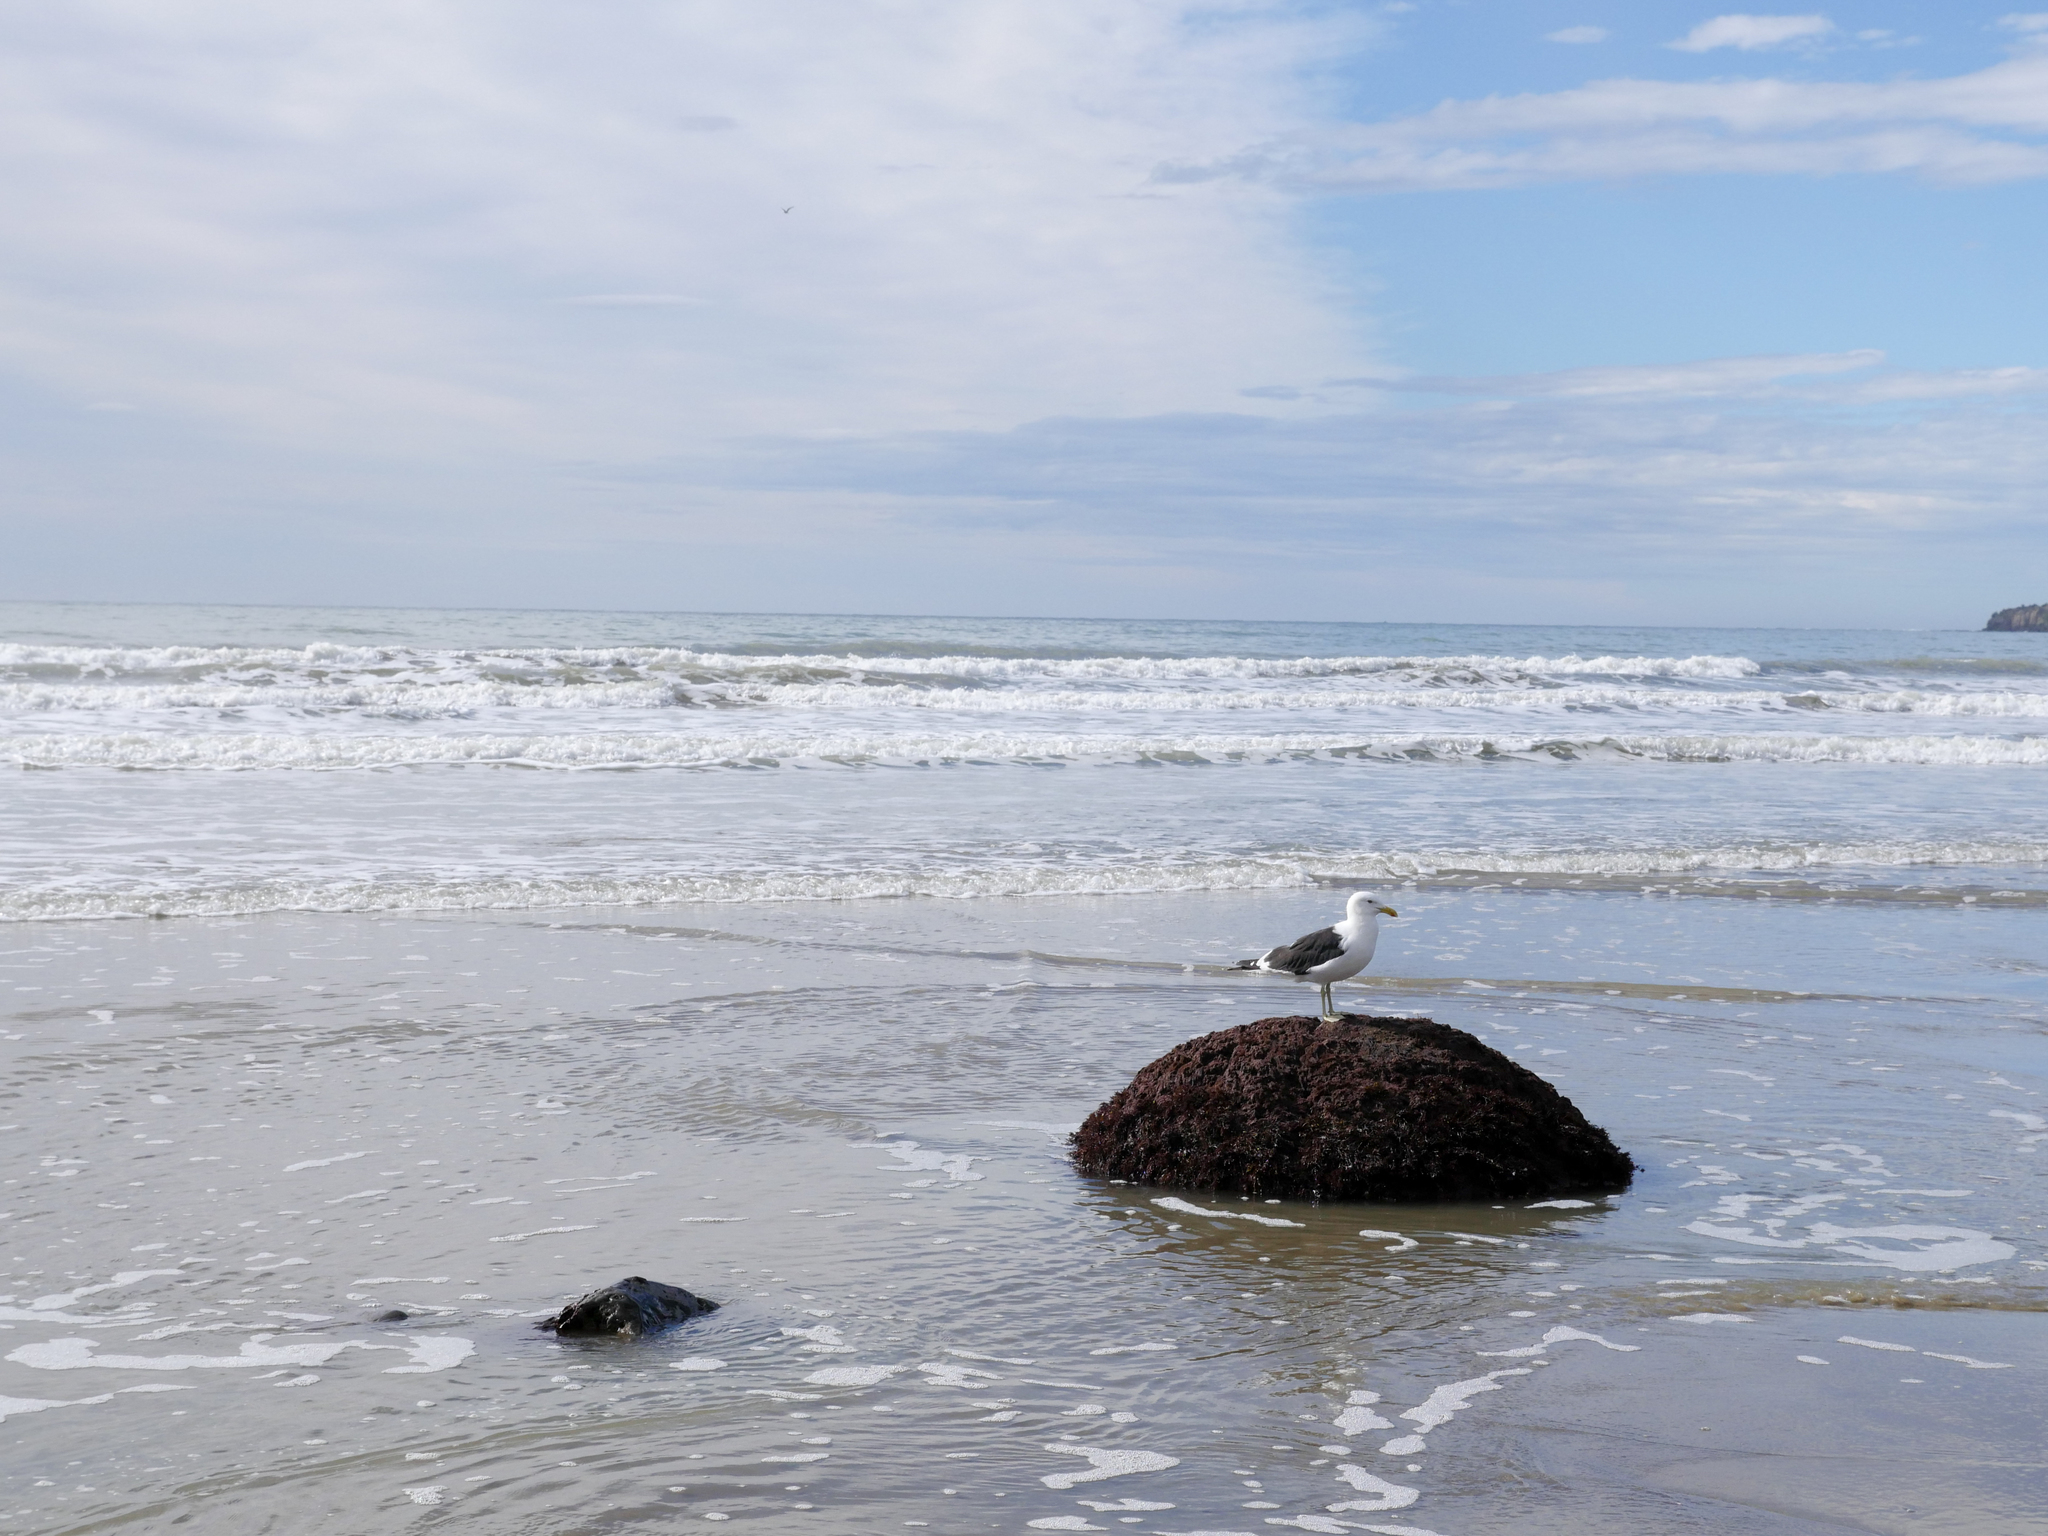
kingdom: Animalia
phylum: Chordata
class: Aves
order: Charadriiformes
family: Laridae
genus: Larus
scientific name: Larus dominicanus
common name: Kelp gull
